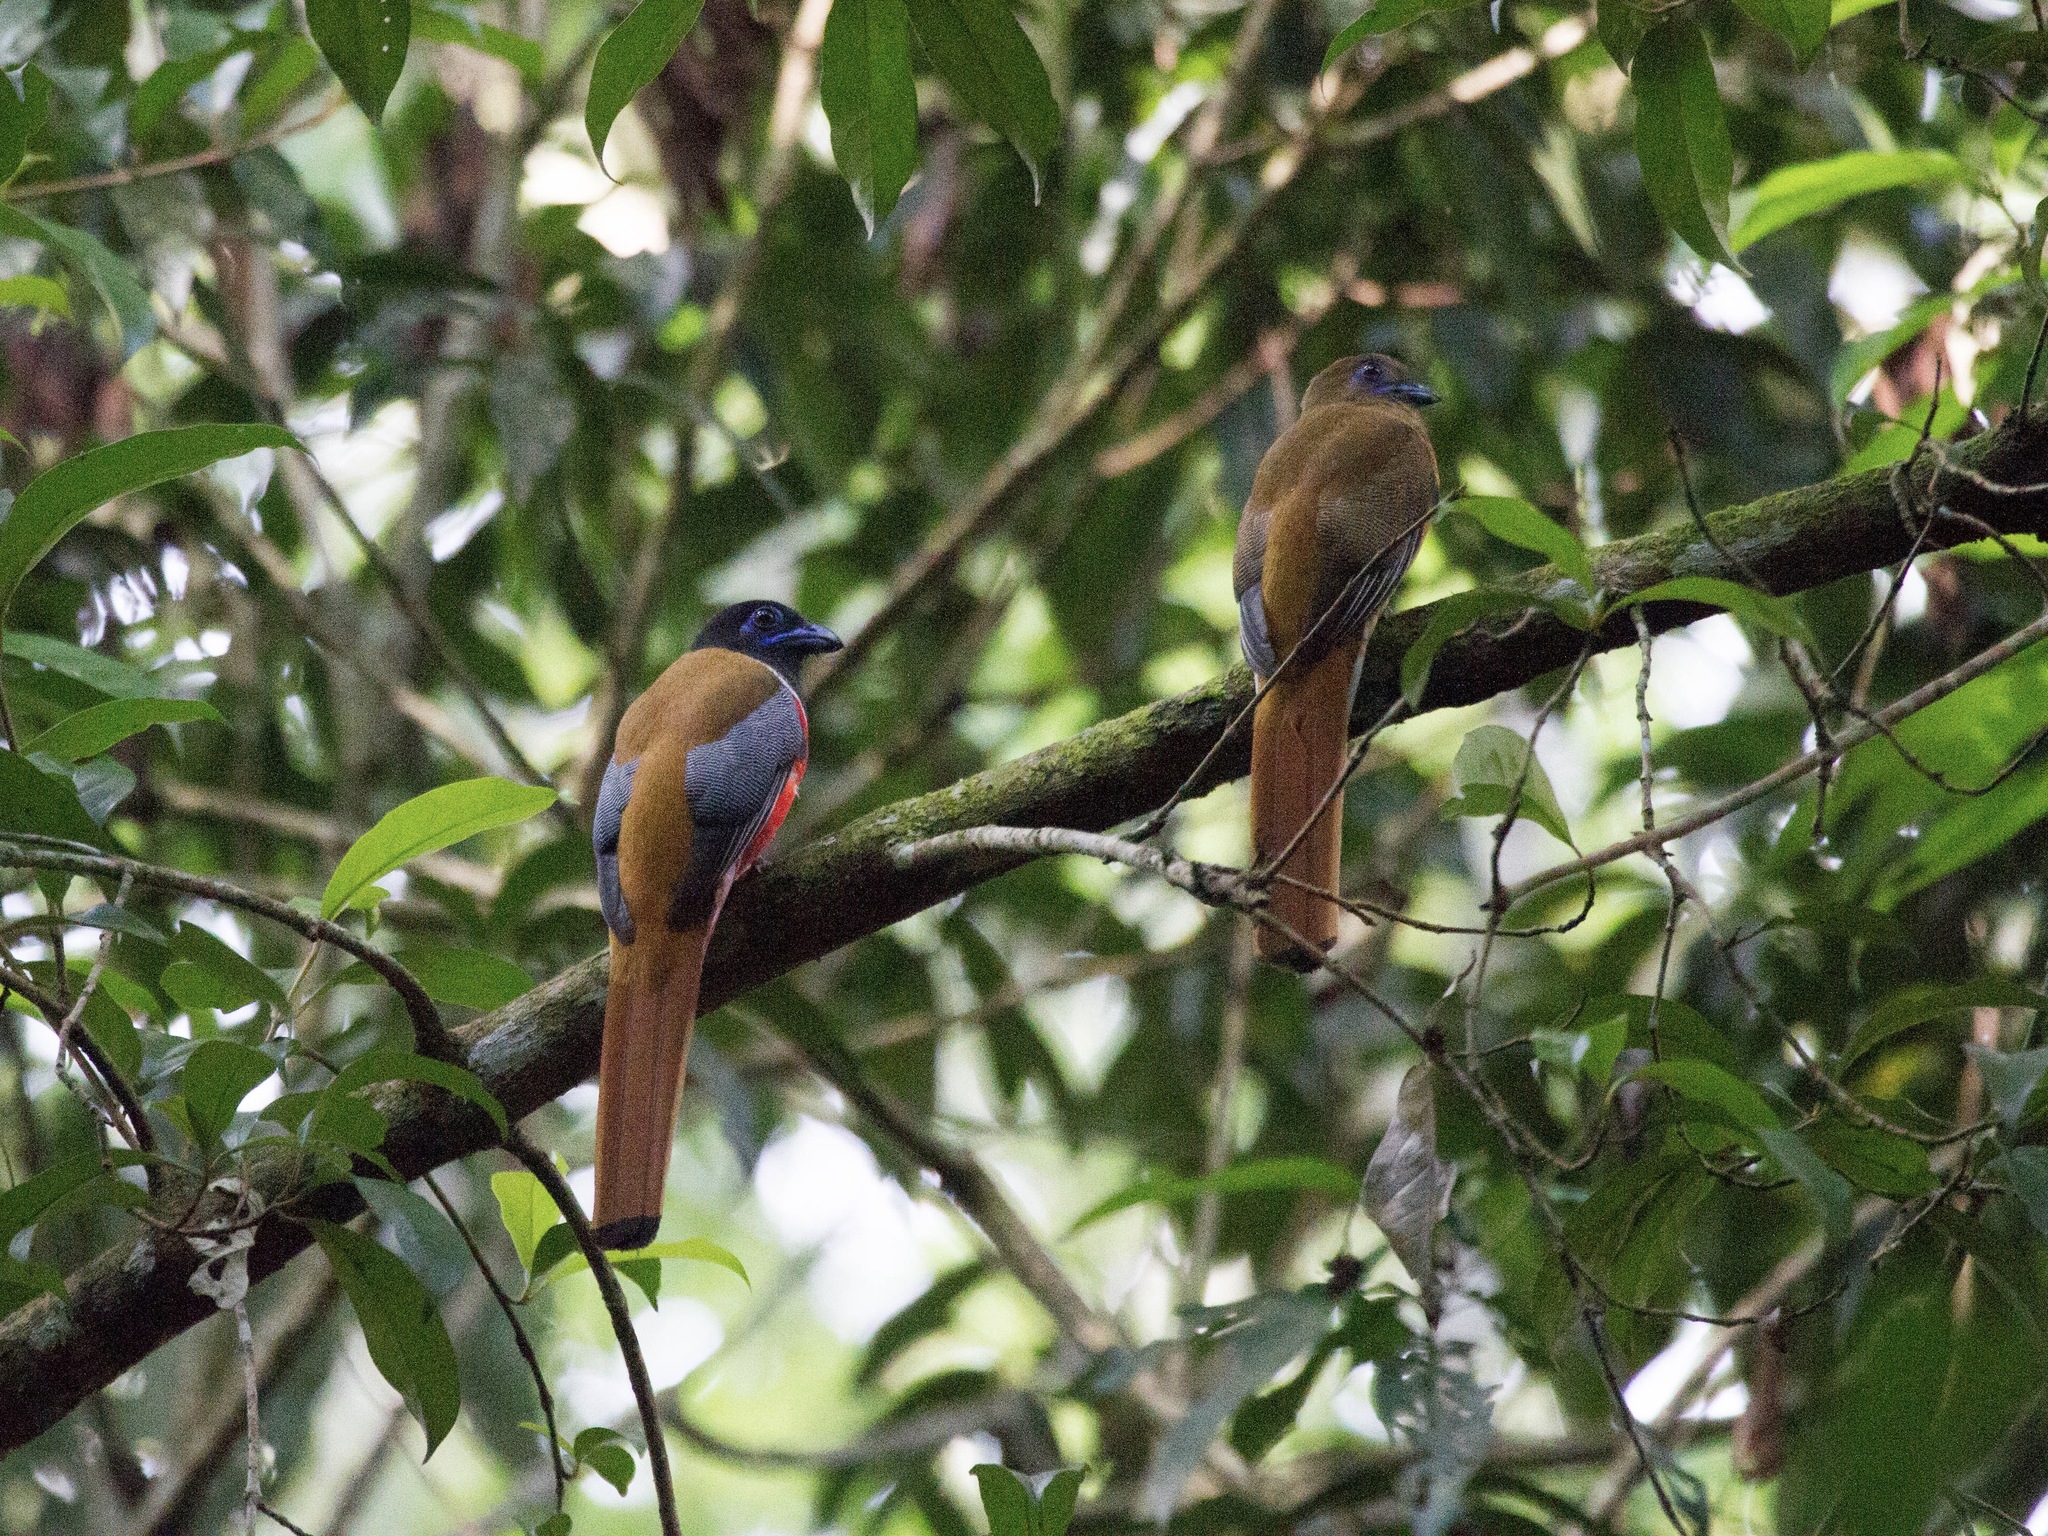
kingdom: Animalia
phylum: Chordata
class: Aves
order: Trogoniformes
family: Trogonidae
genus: Harpactes
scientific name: Harpactes fasciatus
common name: Malabar trogon
